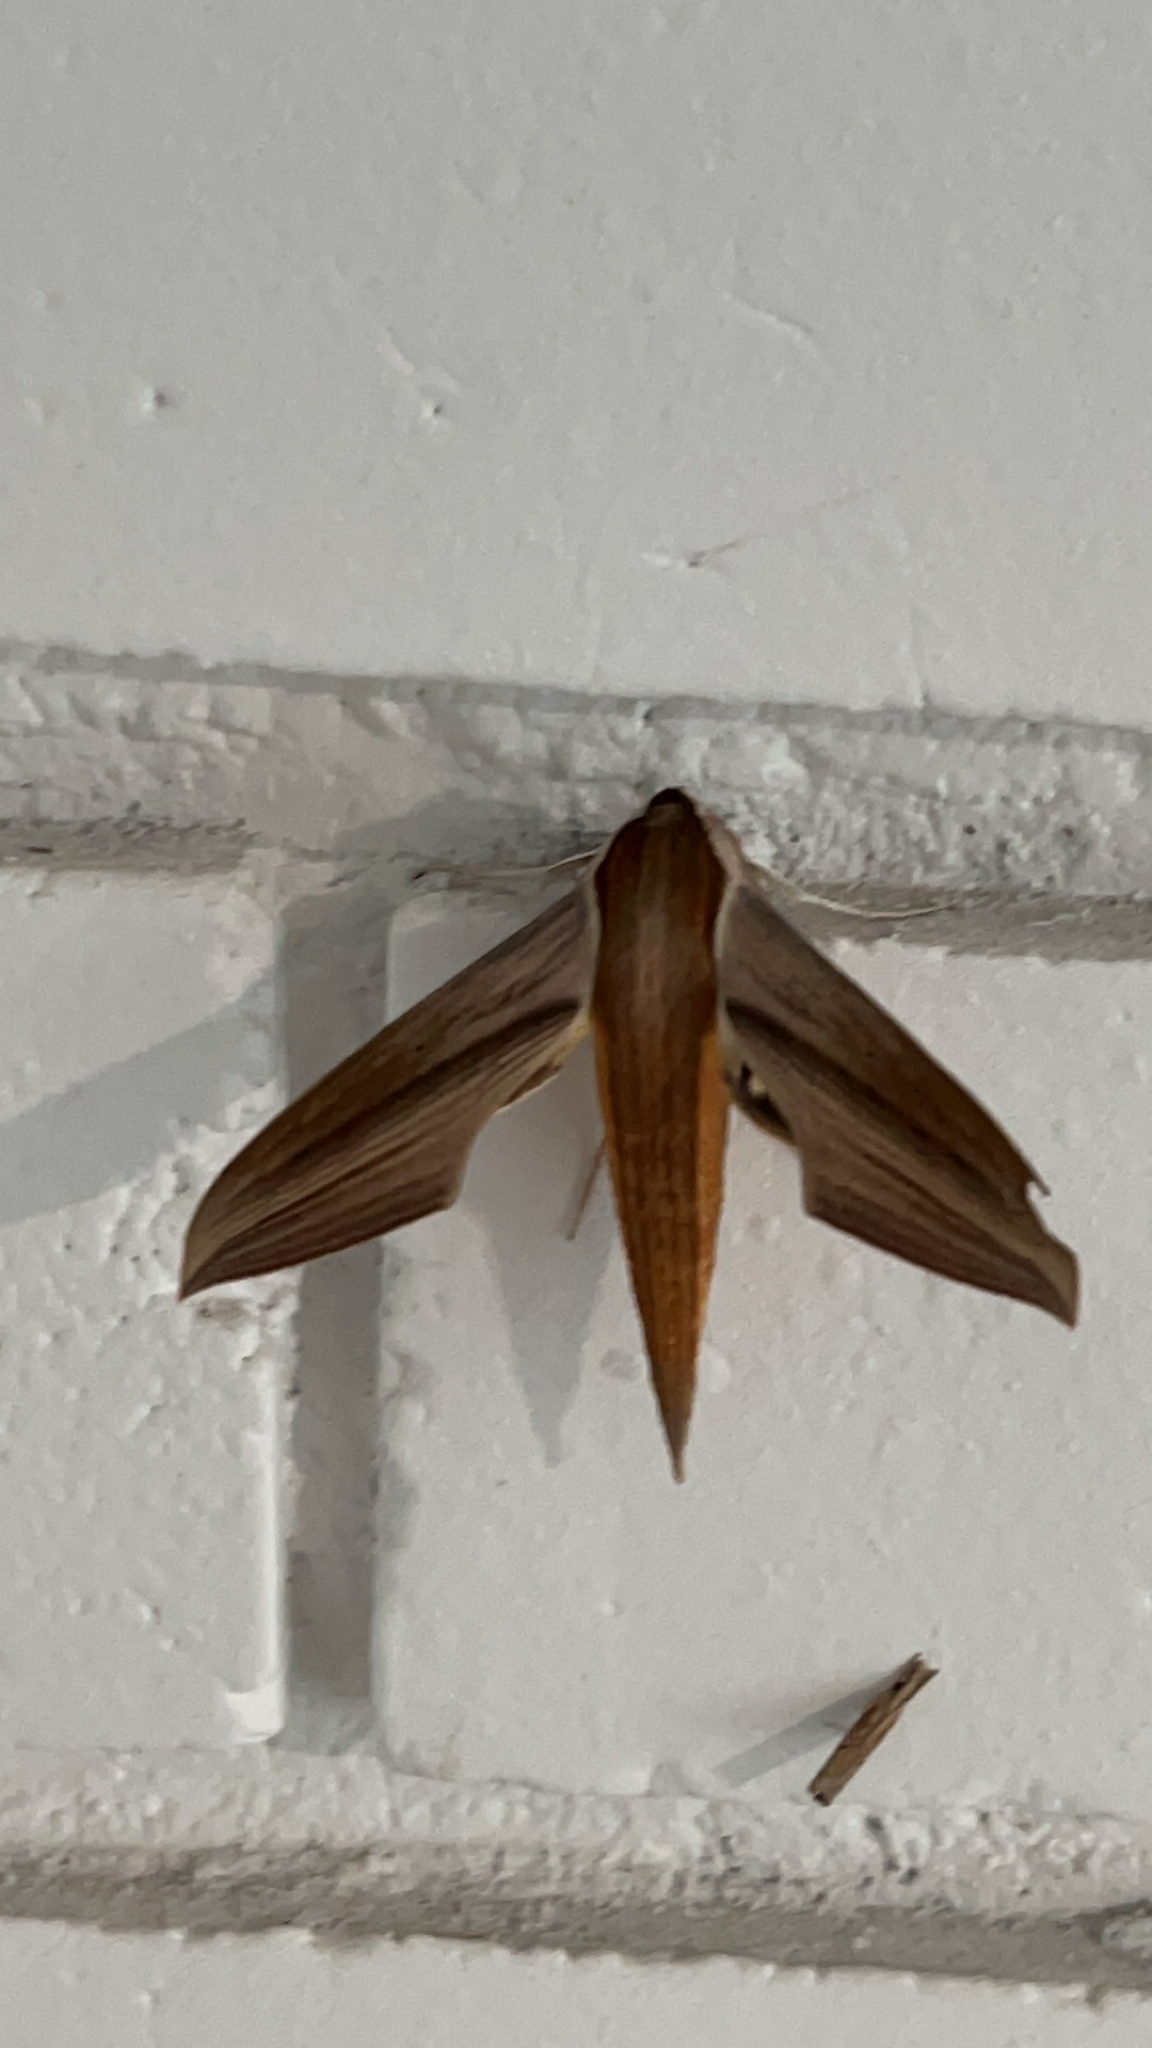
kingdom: Animalia
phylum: Arthropoda
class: Insecta
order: Lepidoptera
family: Sphingidae
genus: Xylophanes
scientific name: Xylophanes tersa
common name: Tersa sphinx
